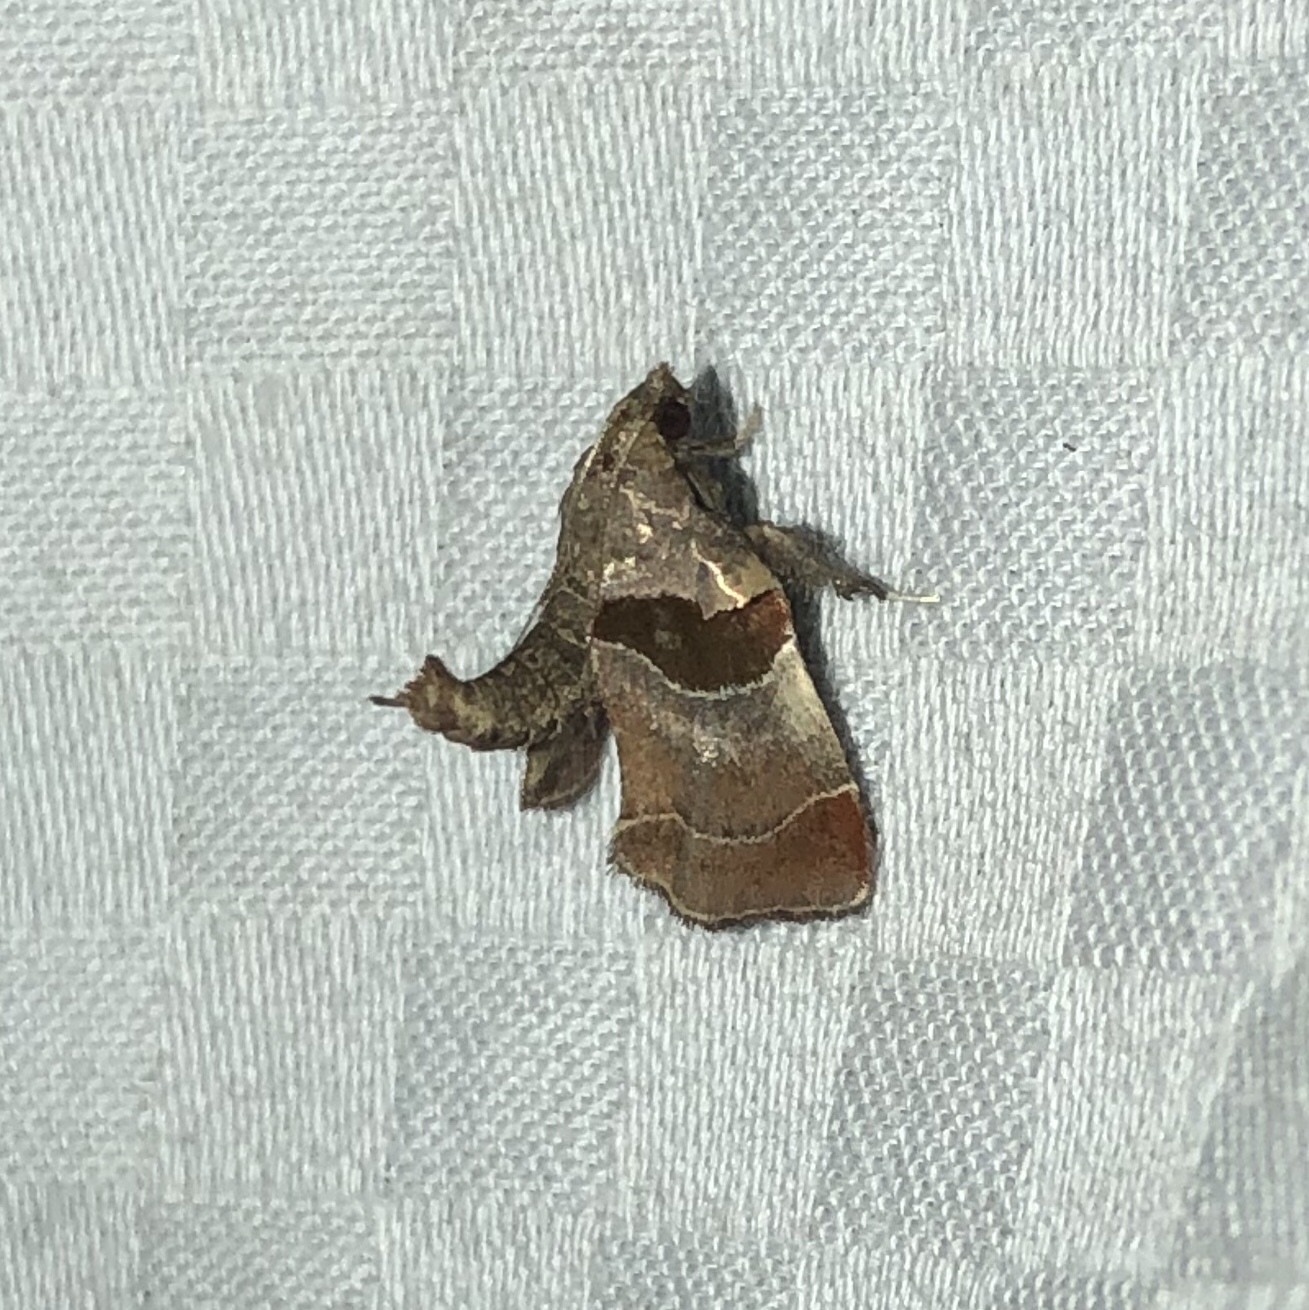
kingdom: Animalia
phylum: Arthropoda
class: Insecta
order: Lepidoptera
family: Pyralidae
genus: Tosale
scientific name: Tosale oviplagalis
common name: Dimorphic tosale moth
